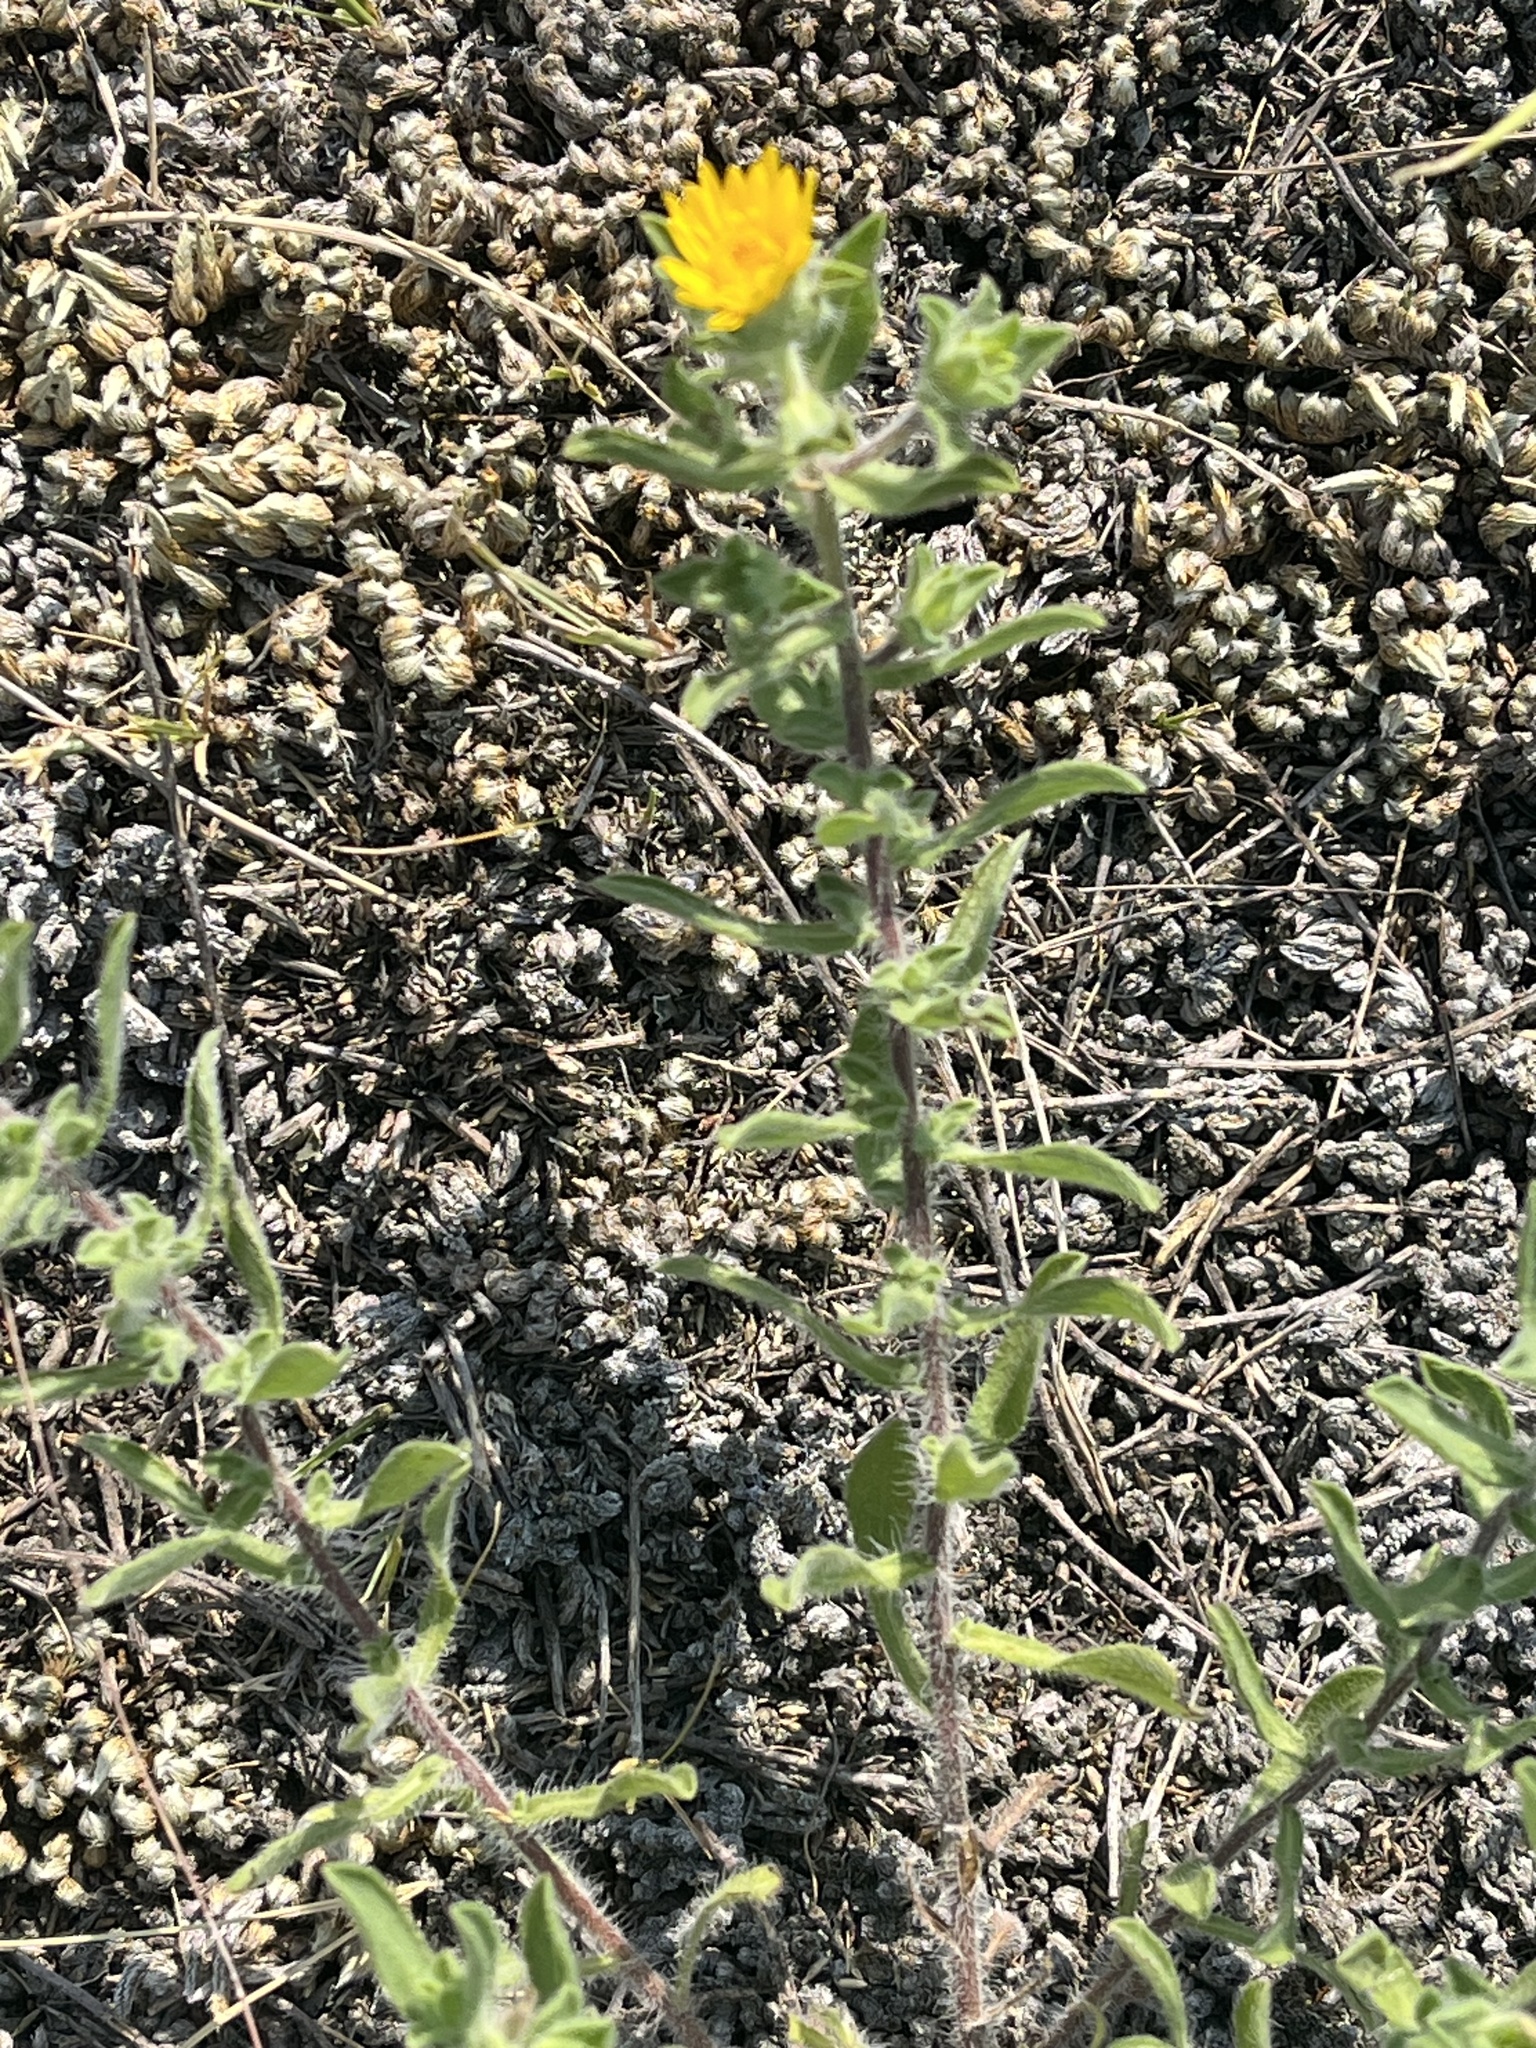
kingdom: Plantae
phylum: Tracheophyta
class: Magnoliopsida
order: Asterales
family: Asteraceae
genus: Heterotheca
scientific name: Heterotheca hispida
